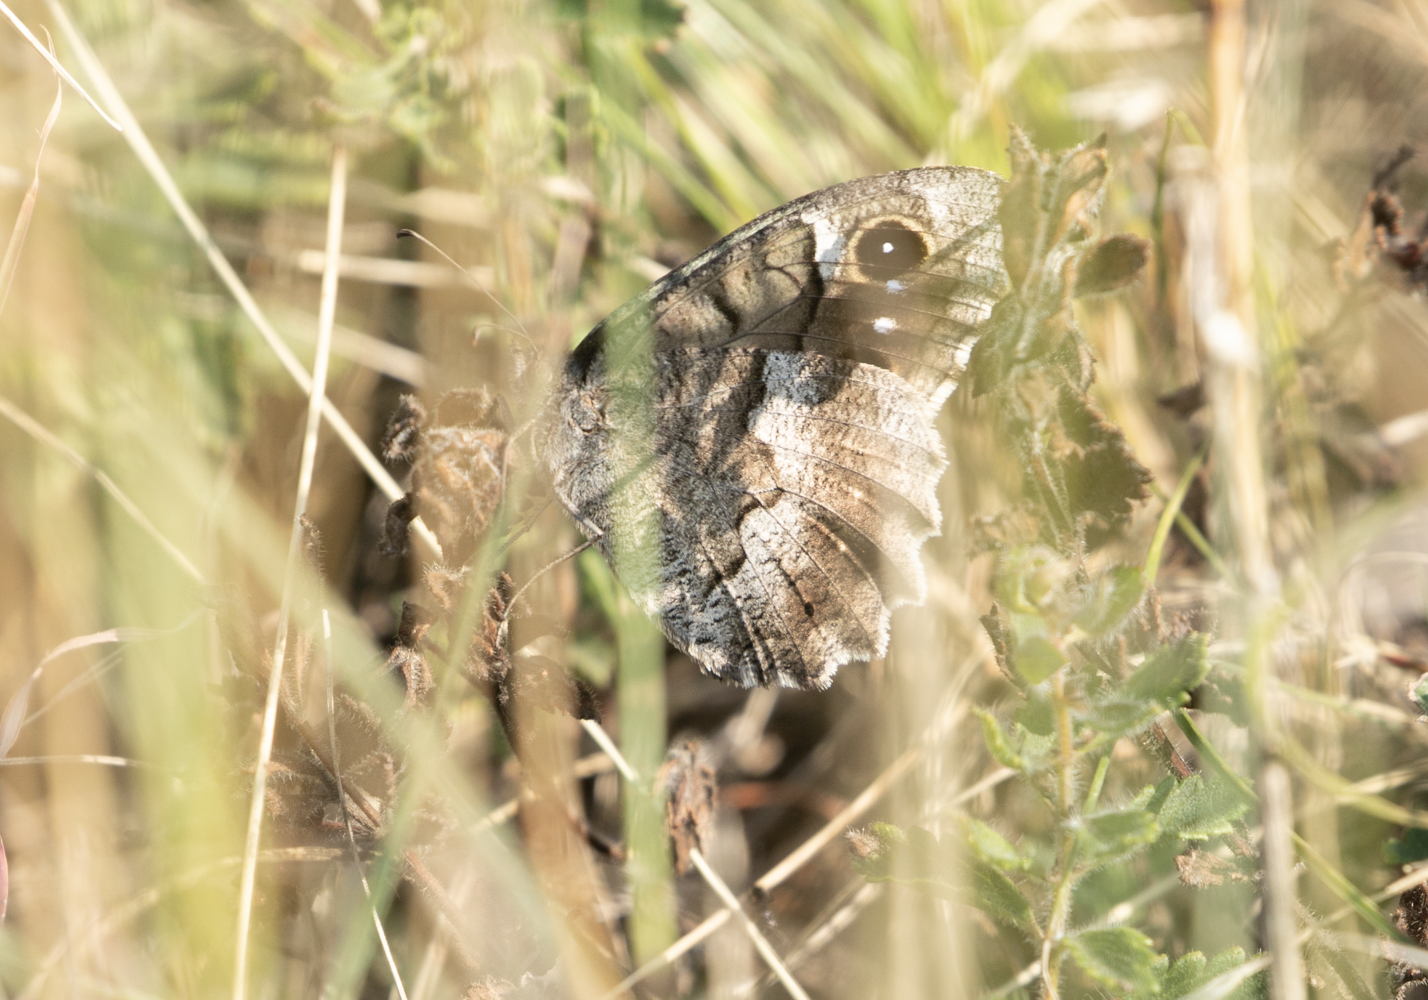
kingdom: Animalia
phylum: Arthropoda
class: Insecta
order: Lepidoptera
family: Nymphalidae
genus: Hipparchia
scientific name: Hipparchia statilinus
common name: Tree grayling
